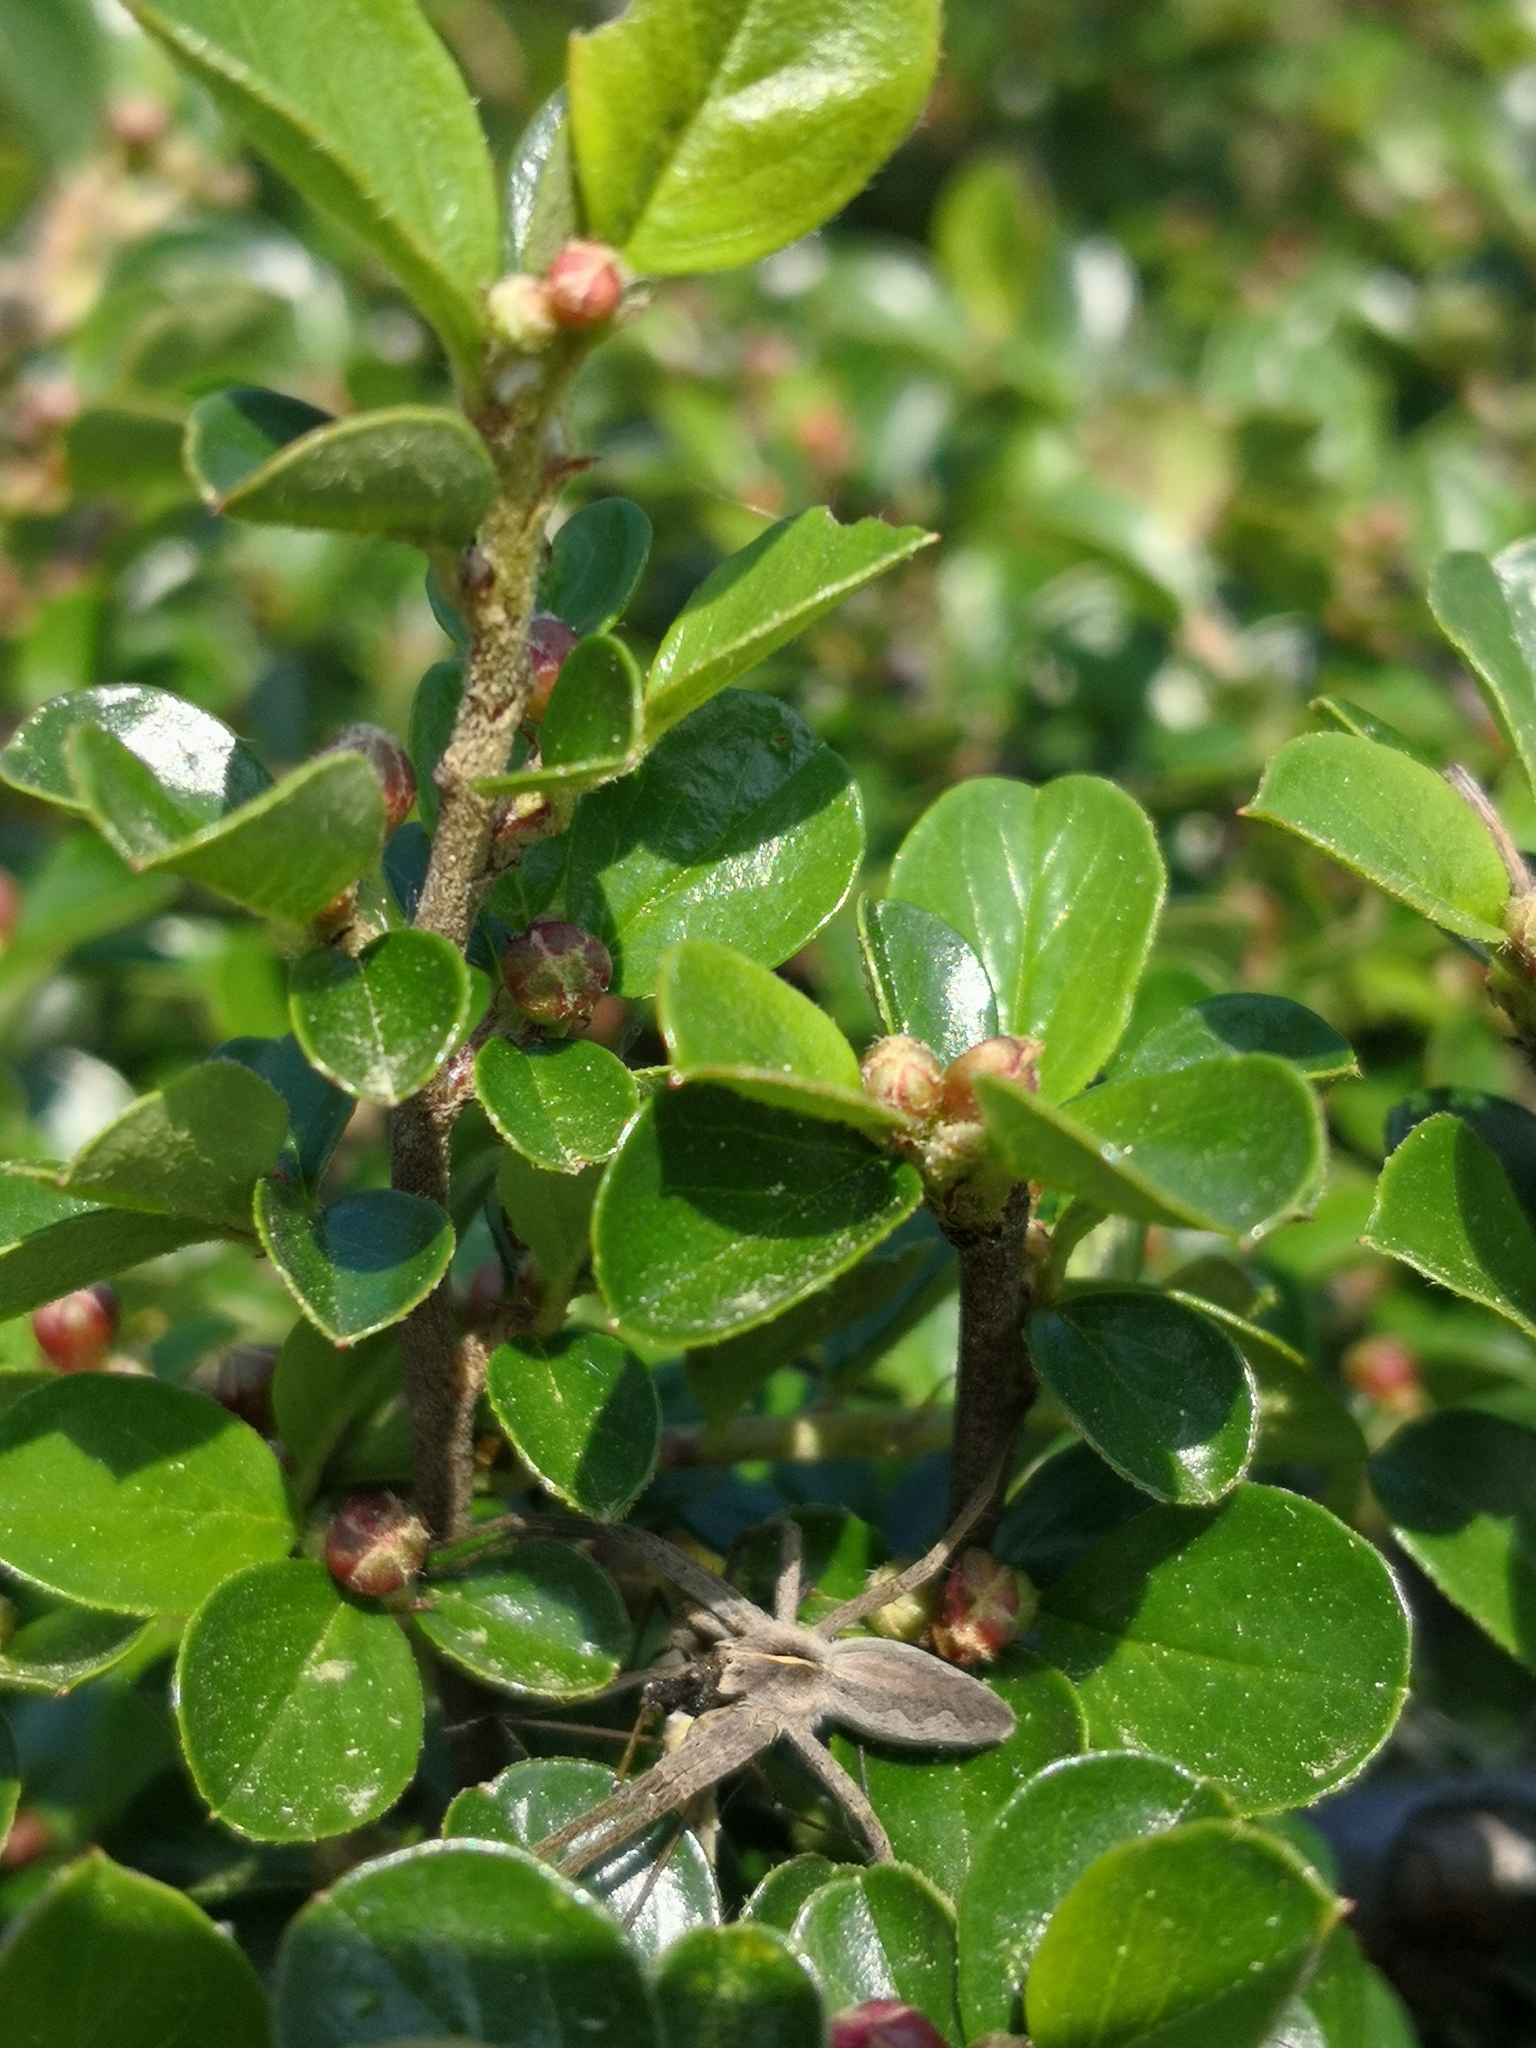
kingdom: Animalia
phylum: Arthropoda
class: Arachnida
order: Araneae
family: Pisauridae
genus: Pisaura
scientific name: Pisaura mirabilis
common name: Tent spider
